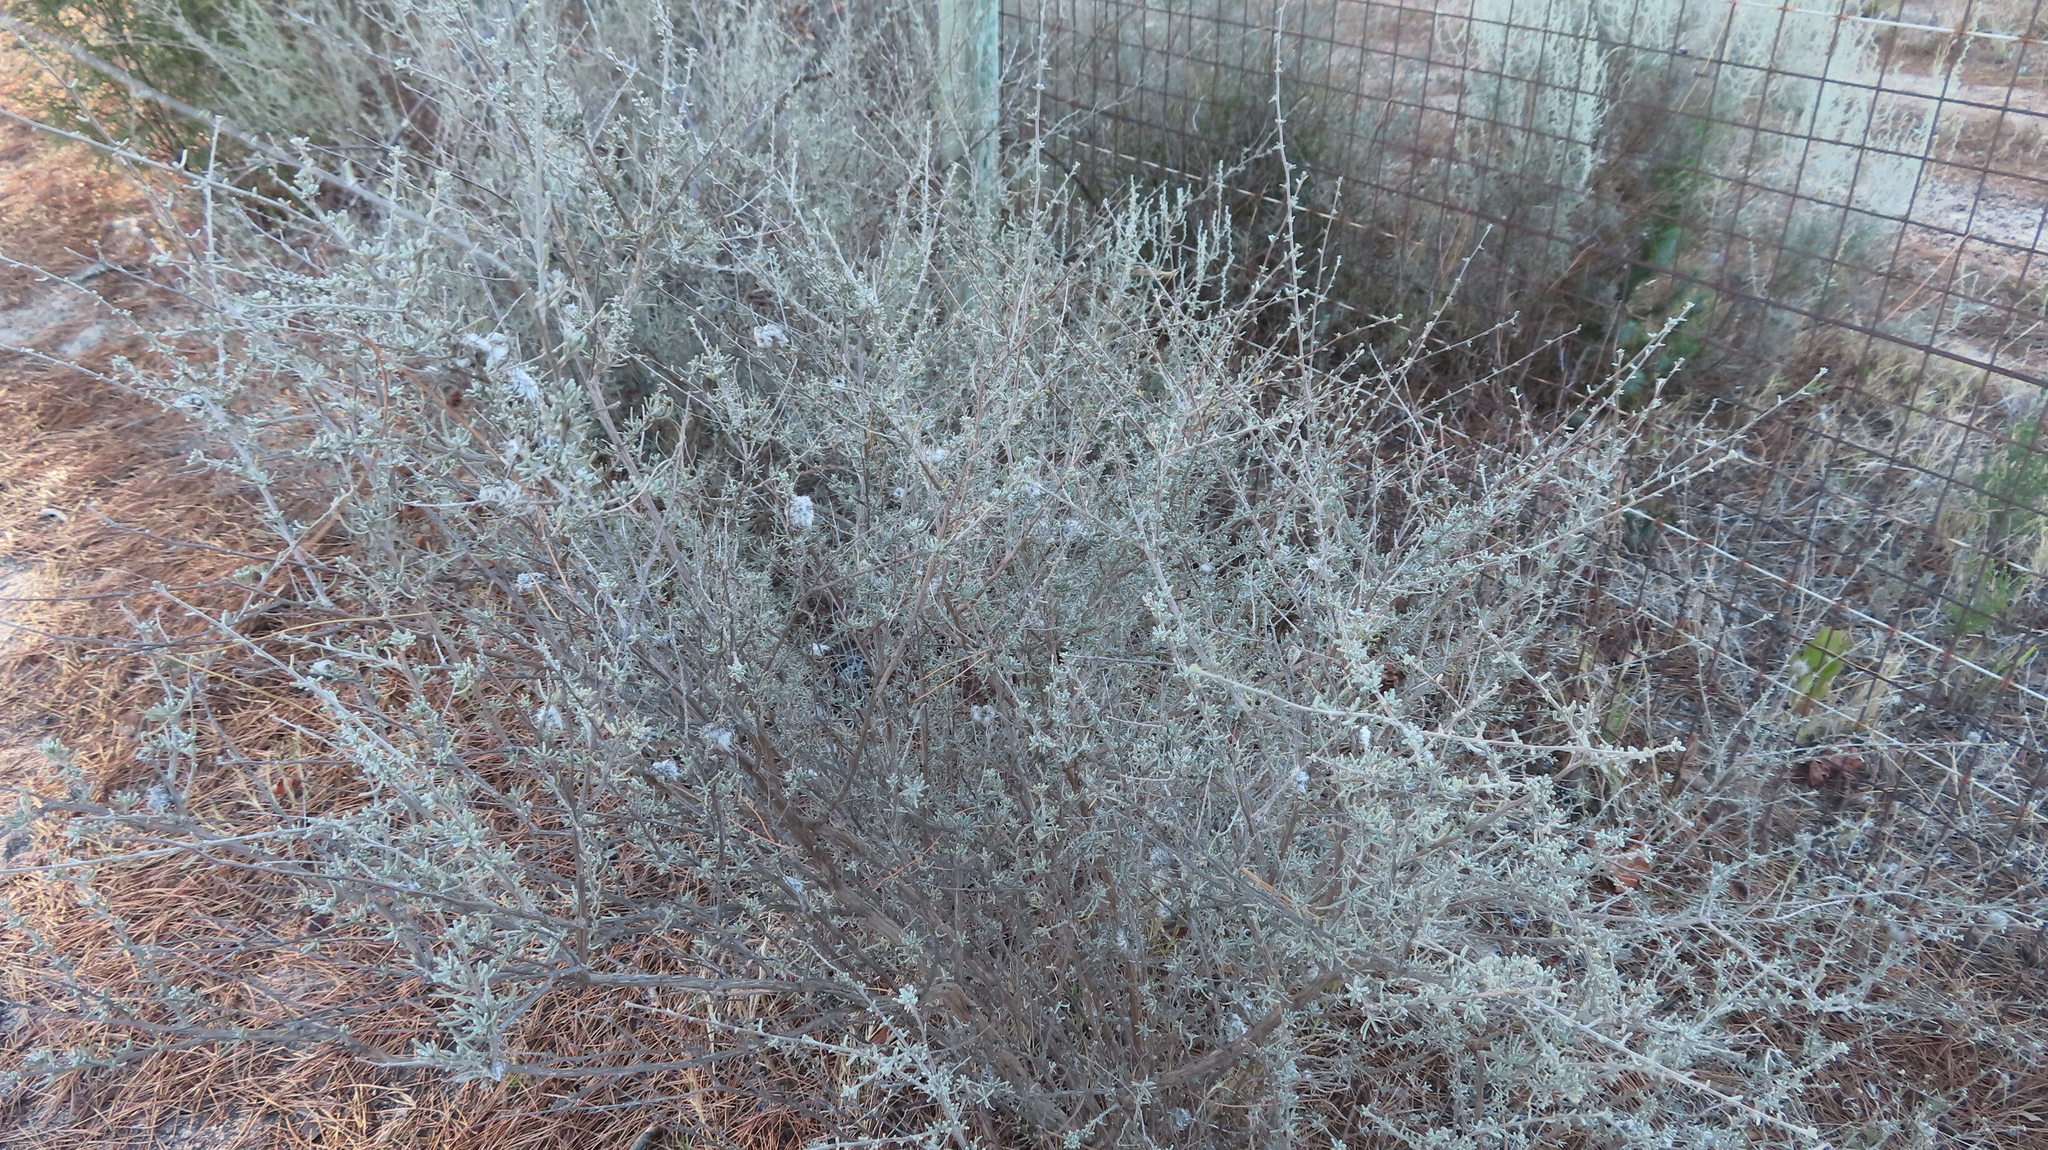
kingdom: Plantae
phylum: Tracheophyta
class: Magnoliopsida
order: Asterales
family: Asteraceae
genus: Eriocephalus
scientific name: Eriocephalus africanus
